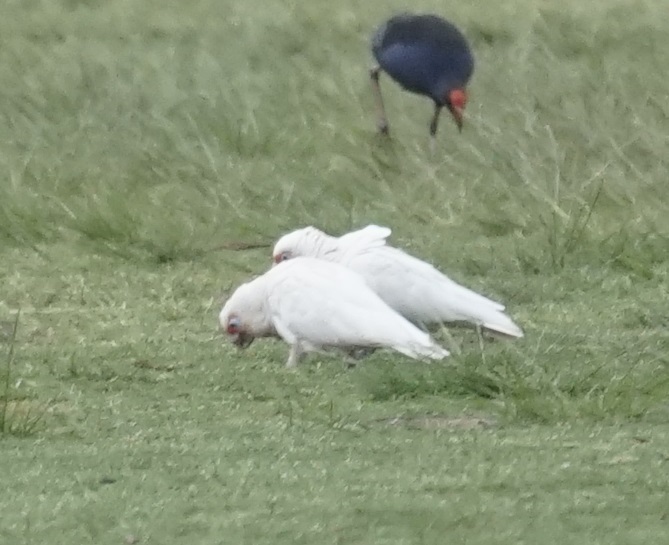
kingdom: Animalia
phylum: Chordata
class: Aves
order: Psittaciformes
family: Psittacidae
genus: Cacatua
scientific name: Cacatua tenuirostris
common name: Long-billed corella
